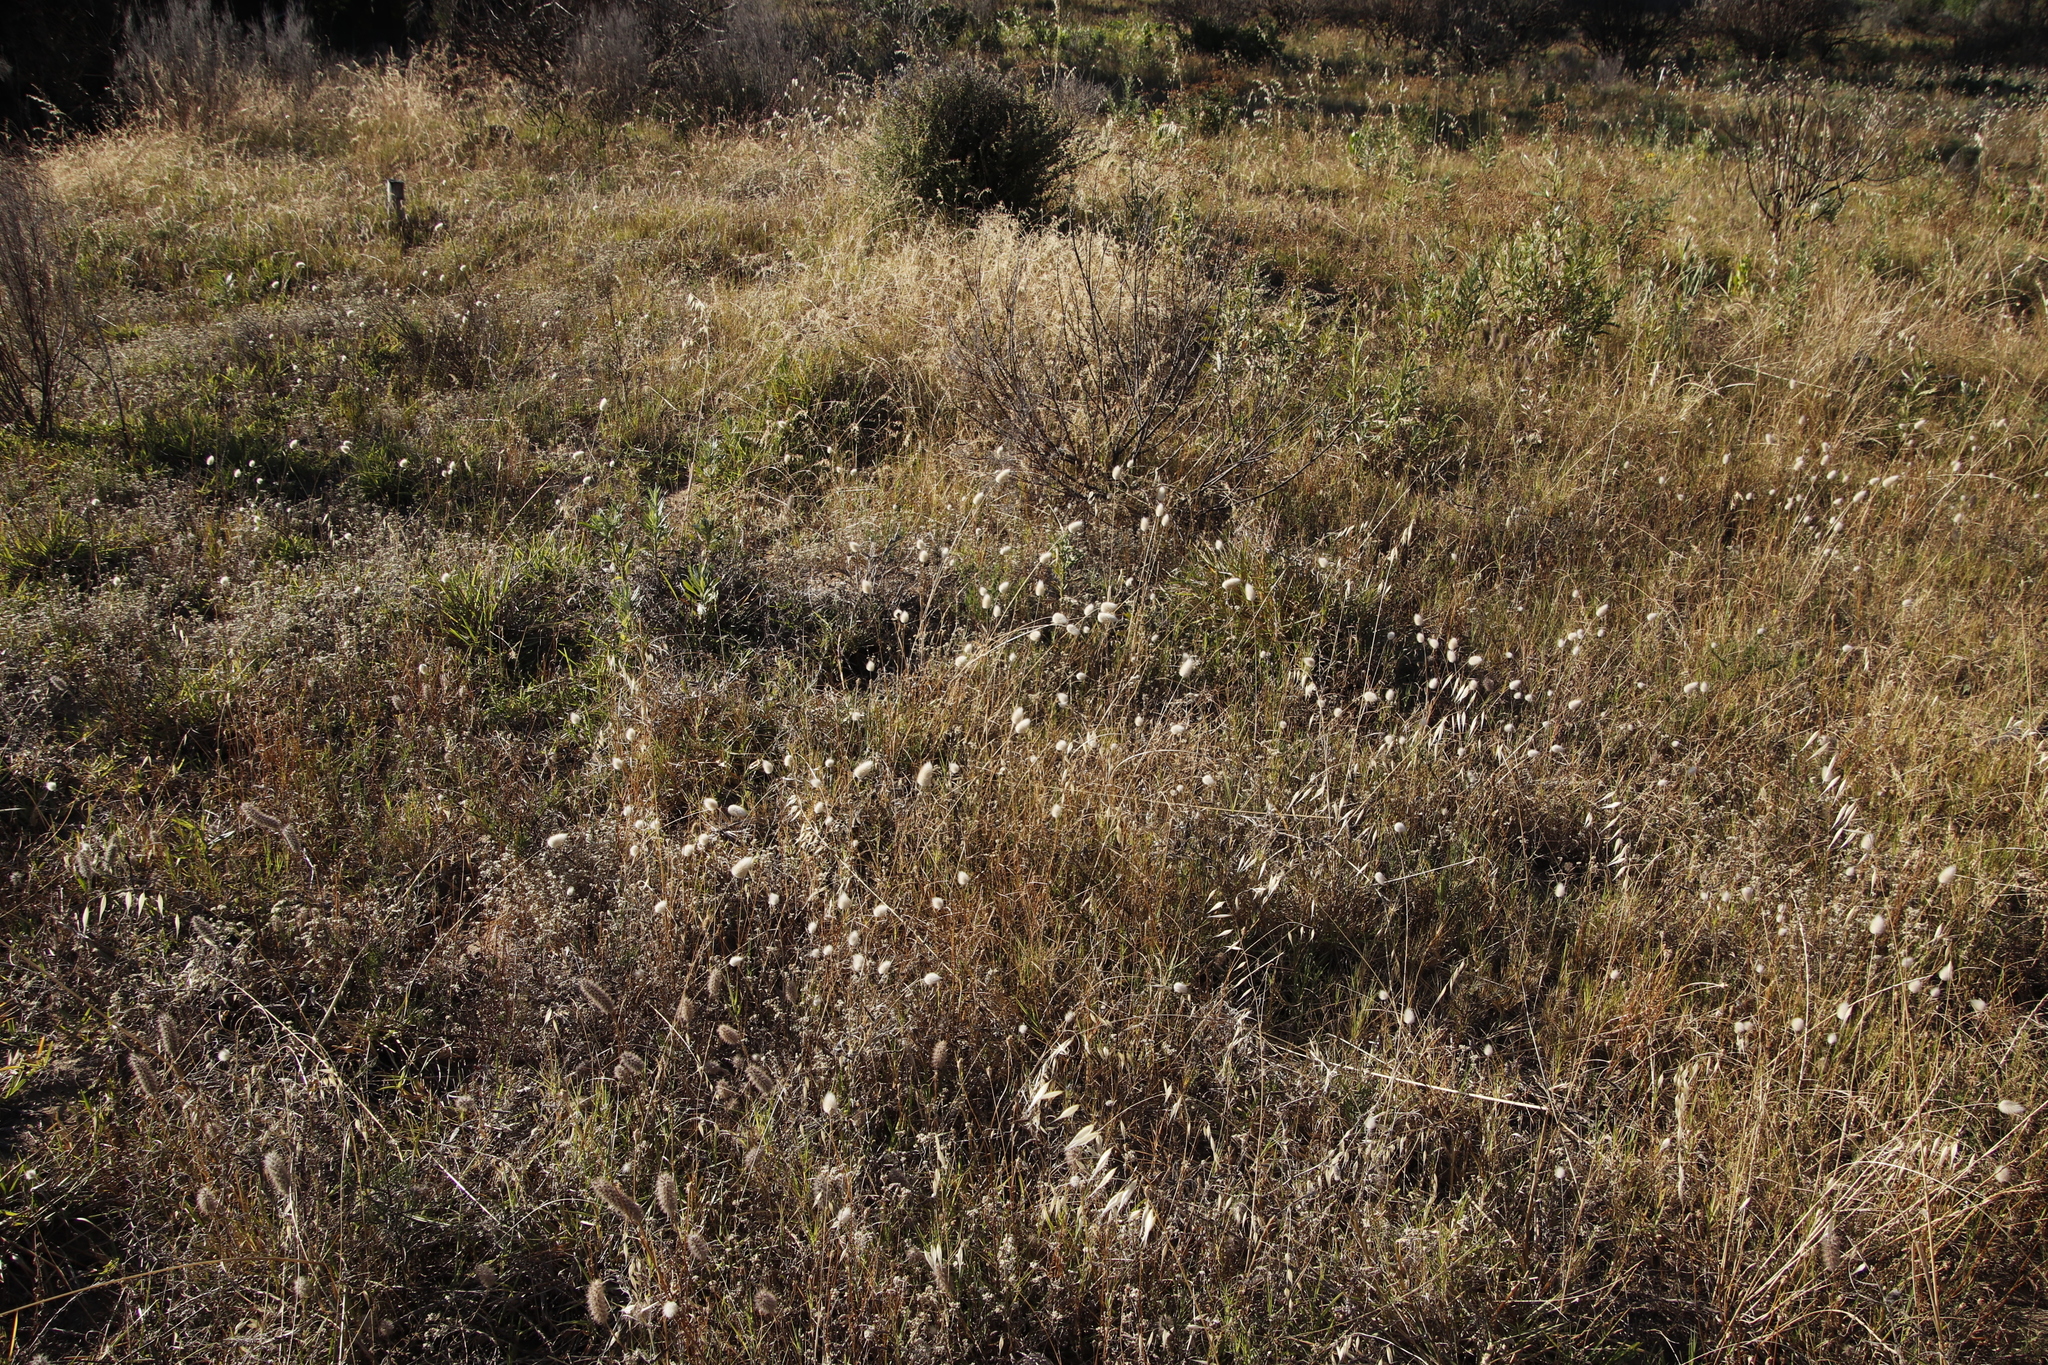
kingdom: Plantae
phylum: Tracheophyta
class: Liliopsida
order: Poales
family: Poaceae
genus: Lagurus
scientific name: Lagurus ovatus
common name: Hare's-tail
